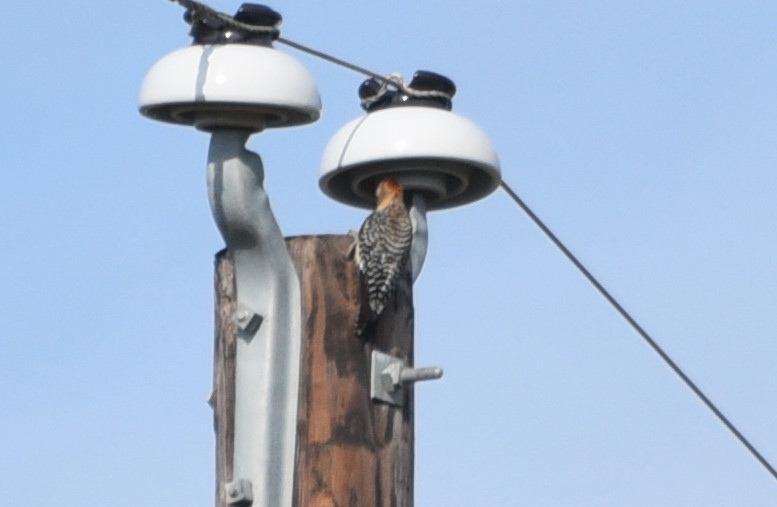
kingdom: Animalia
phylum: Chordata
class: Aves
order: Piciformes
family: Picidae
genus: Melanerpes
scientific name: Melanerpes aurifrons
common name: Golden-fronted woodpecker
